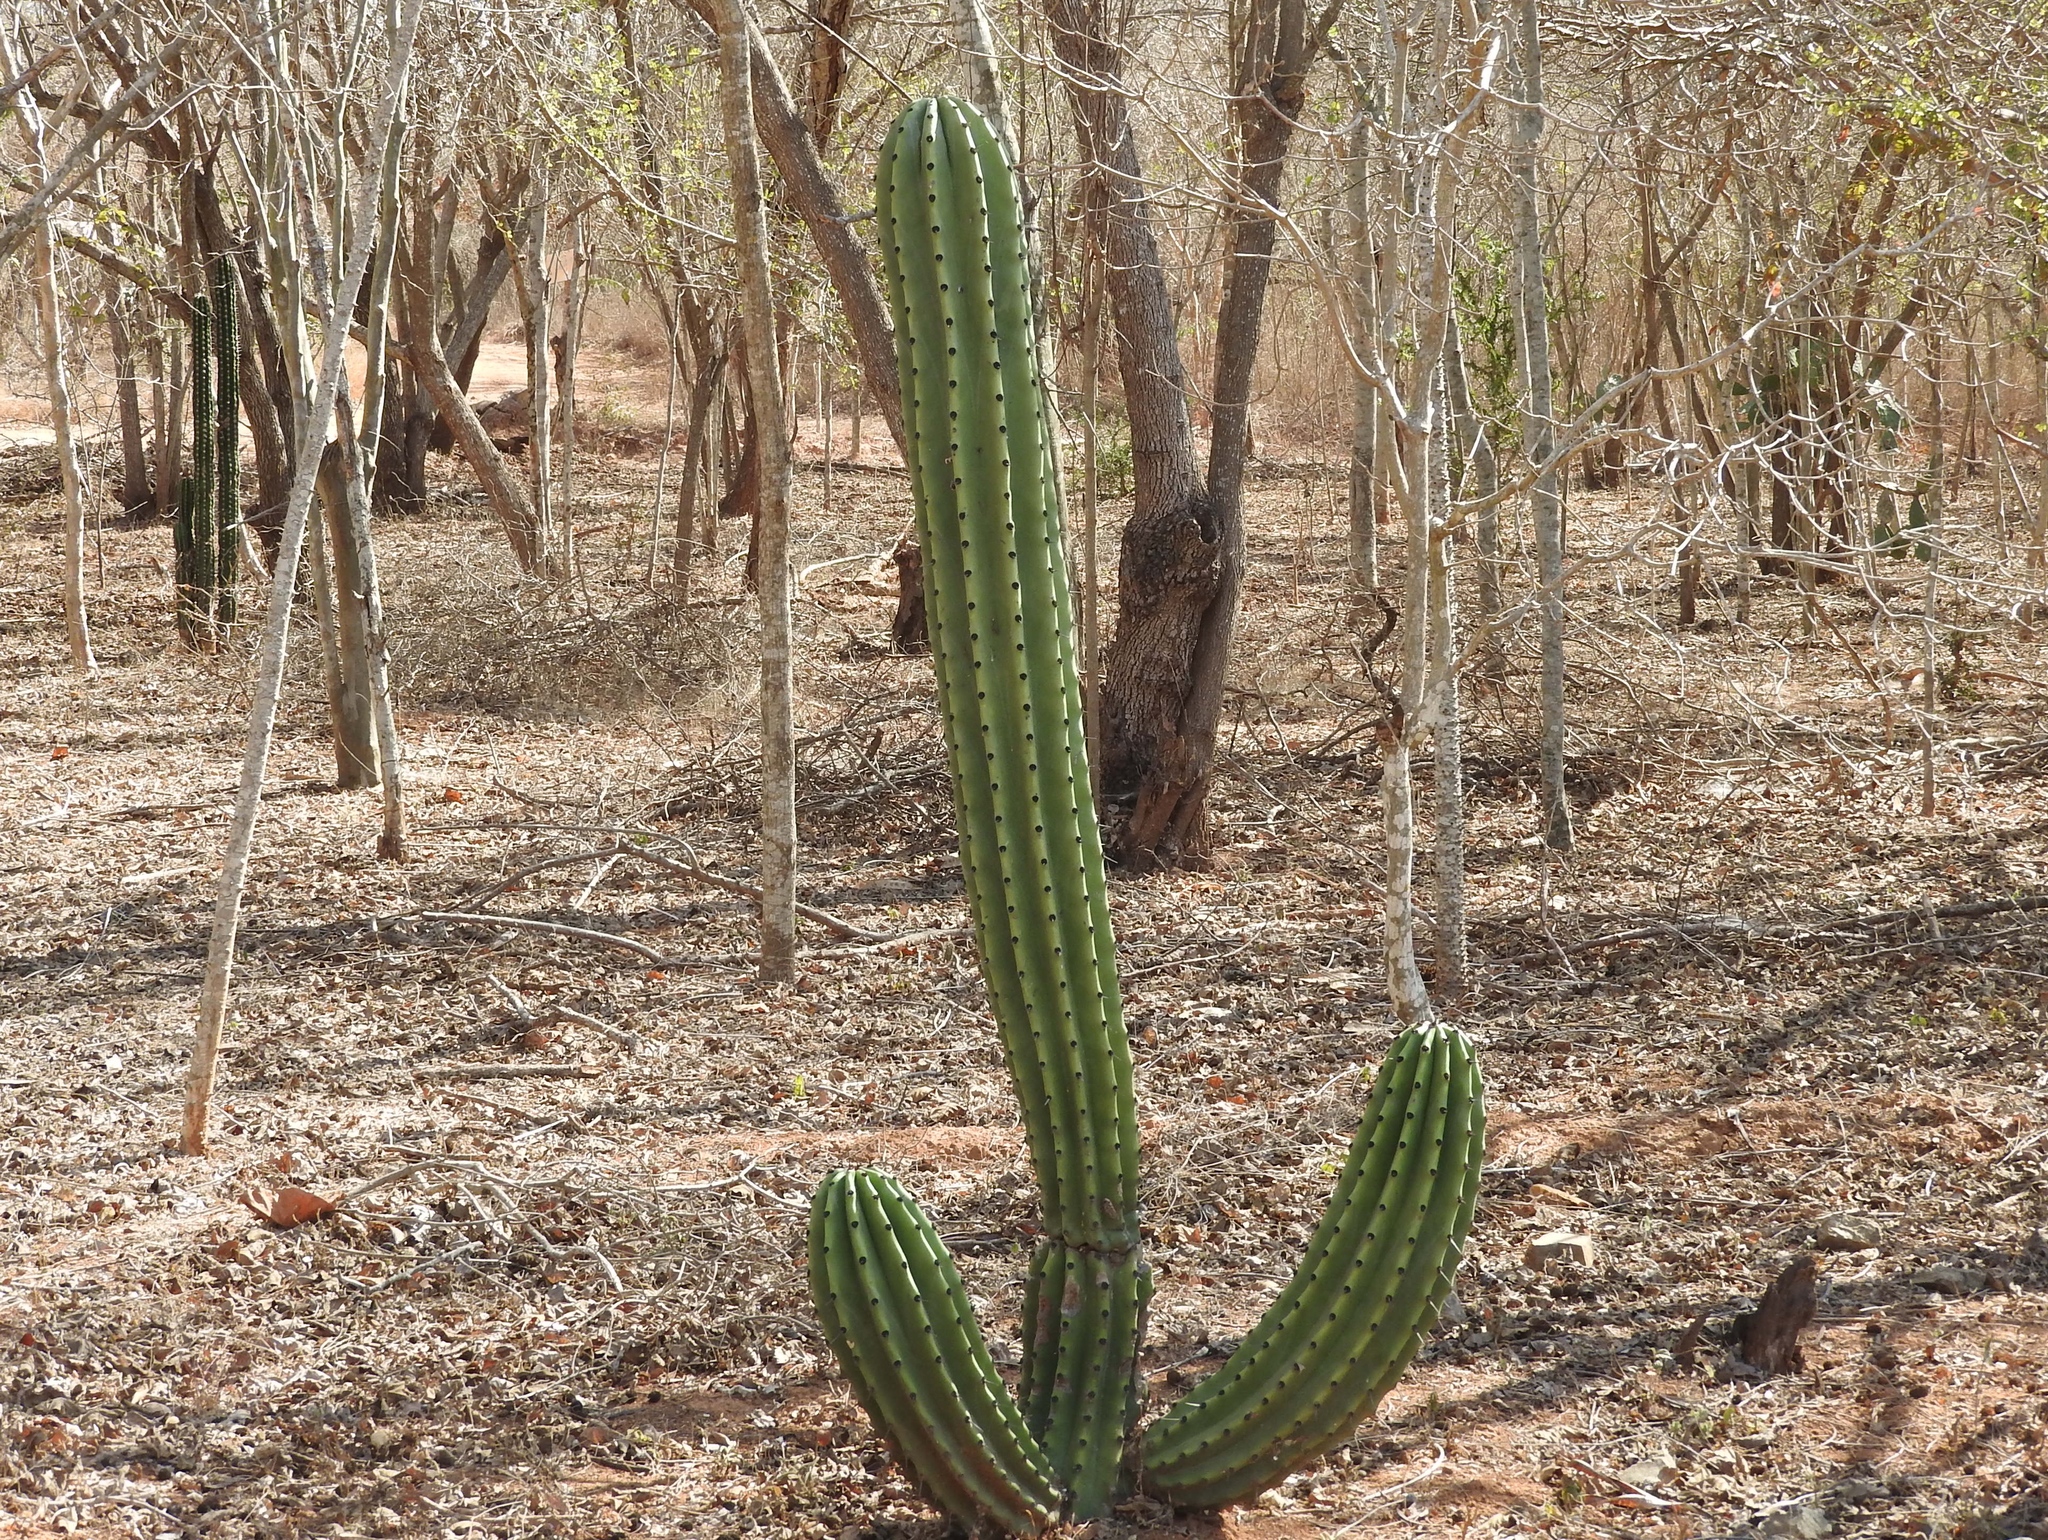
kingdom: Plantae
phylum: Tracheophyta
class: Magnoliopsida
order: Caryophyllales
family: Cactaceae
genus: Stenocereus
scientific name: Stenocereus martinezii
